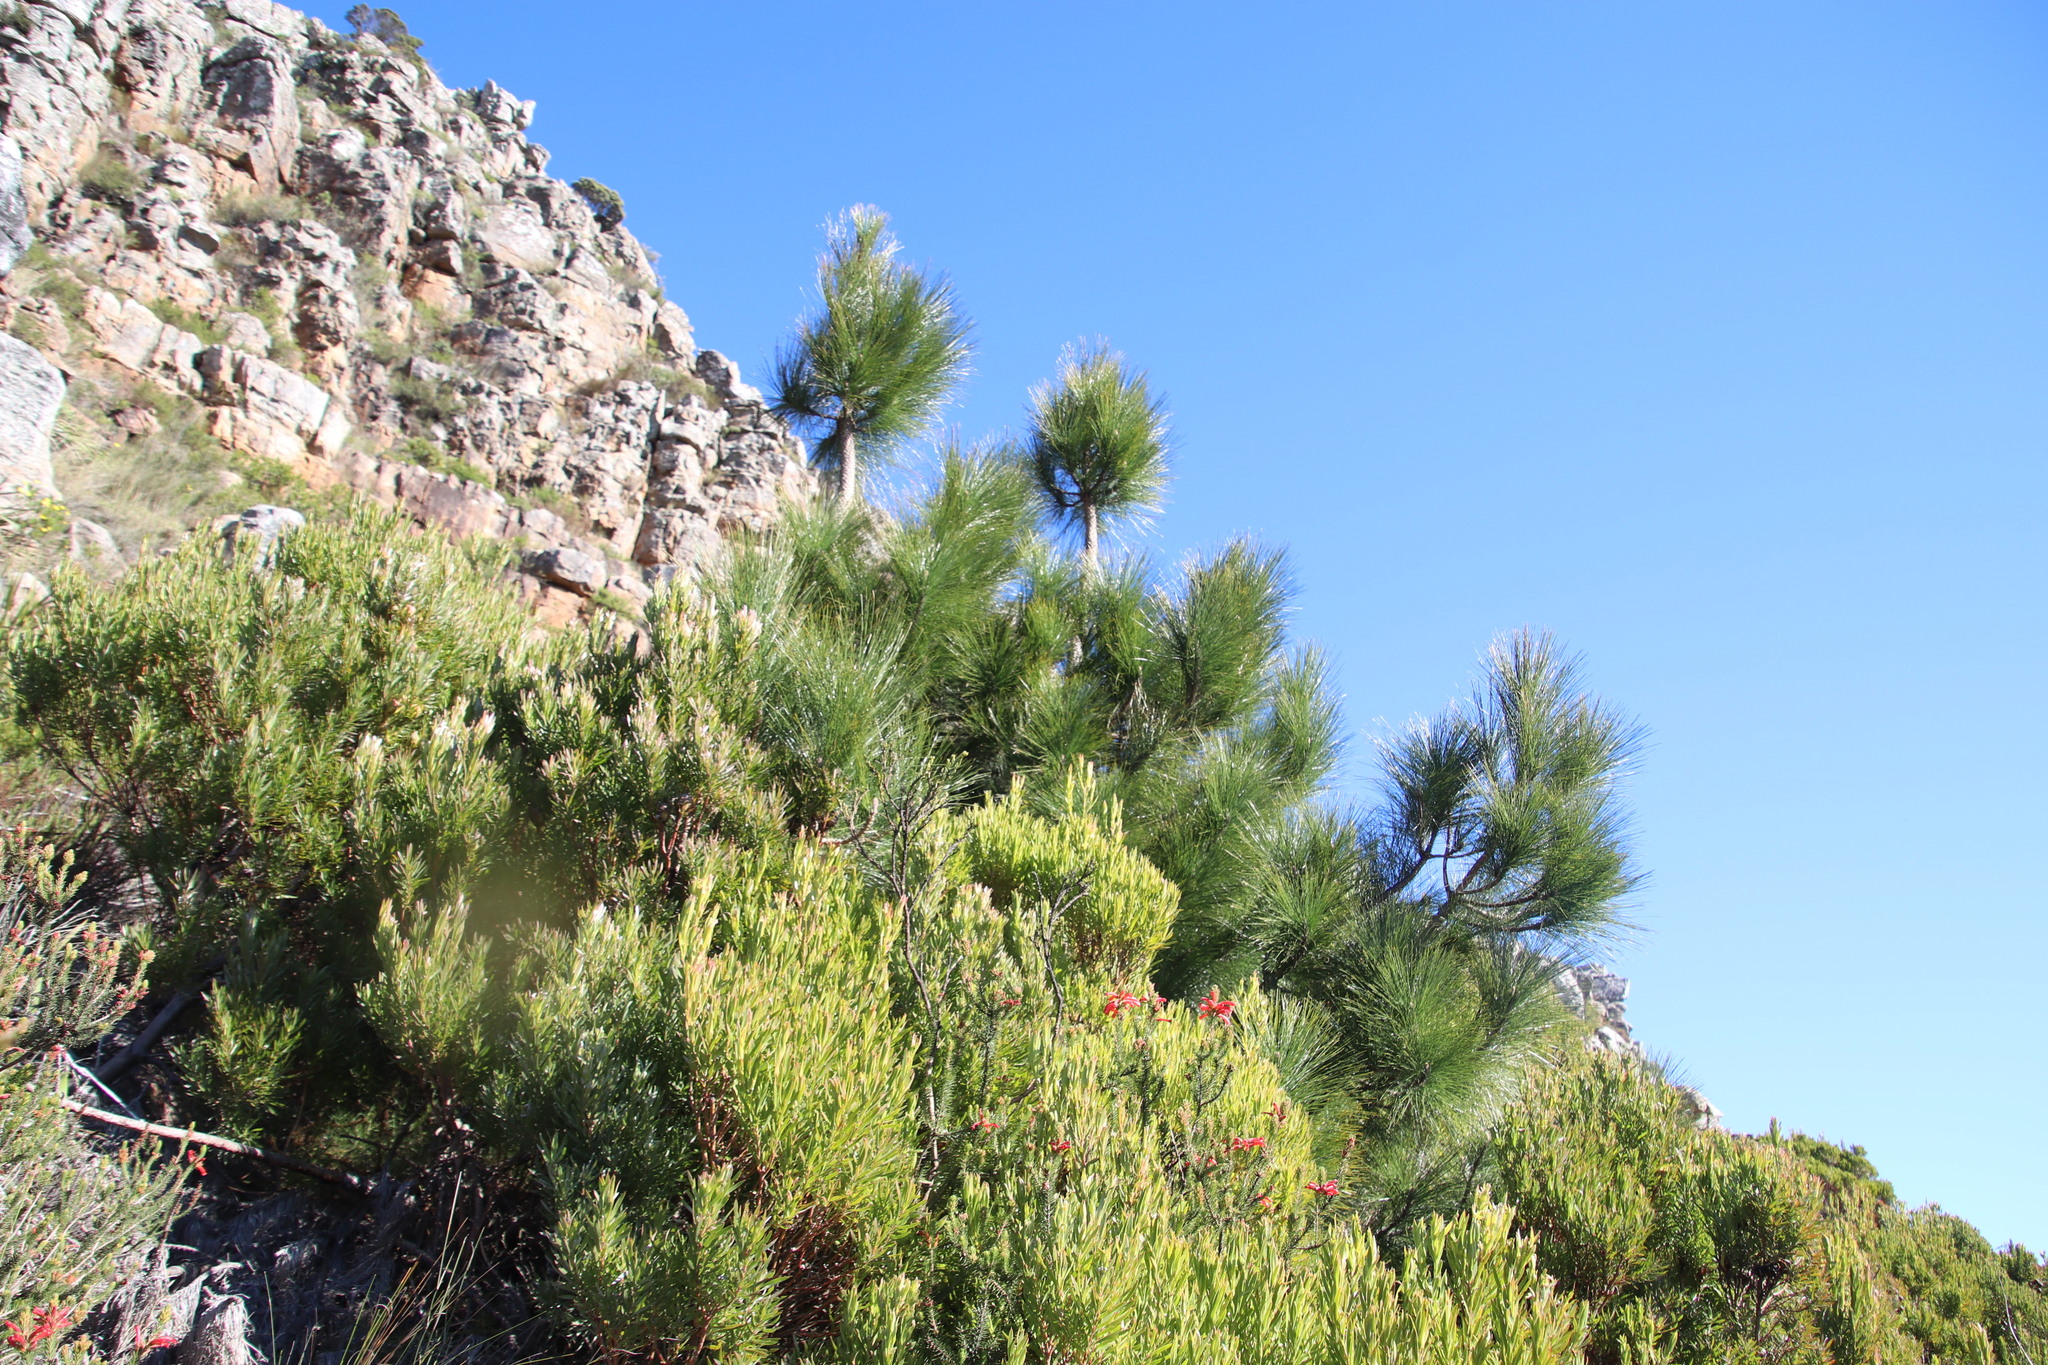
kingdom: Plantae
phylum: Tracheophyta
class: Pinopsida
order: Pinales
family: Pinaceae
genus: Pinus
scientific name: Pinus canariensis
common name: Canary islands pine
